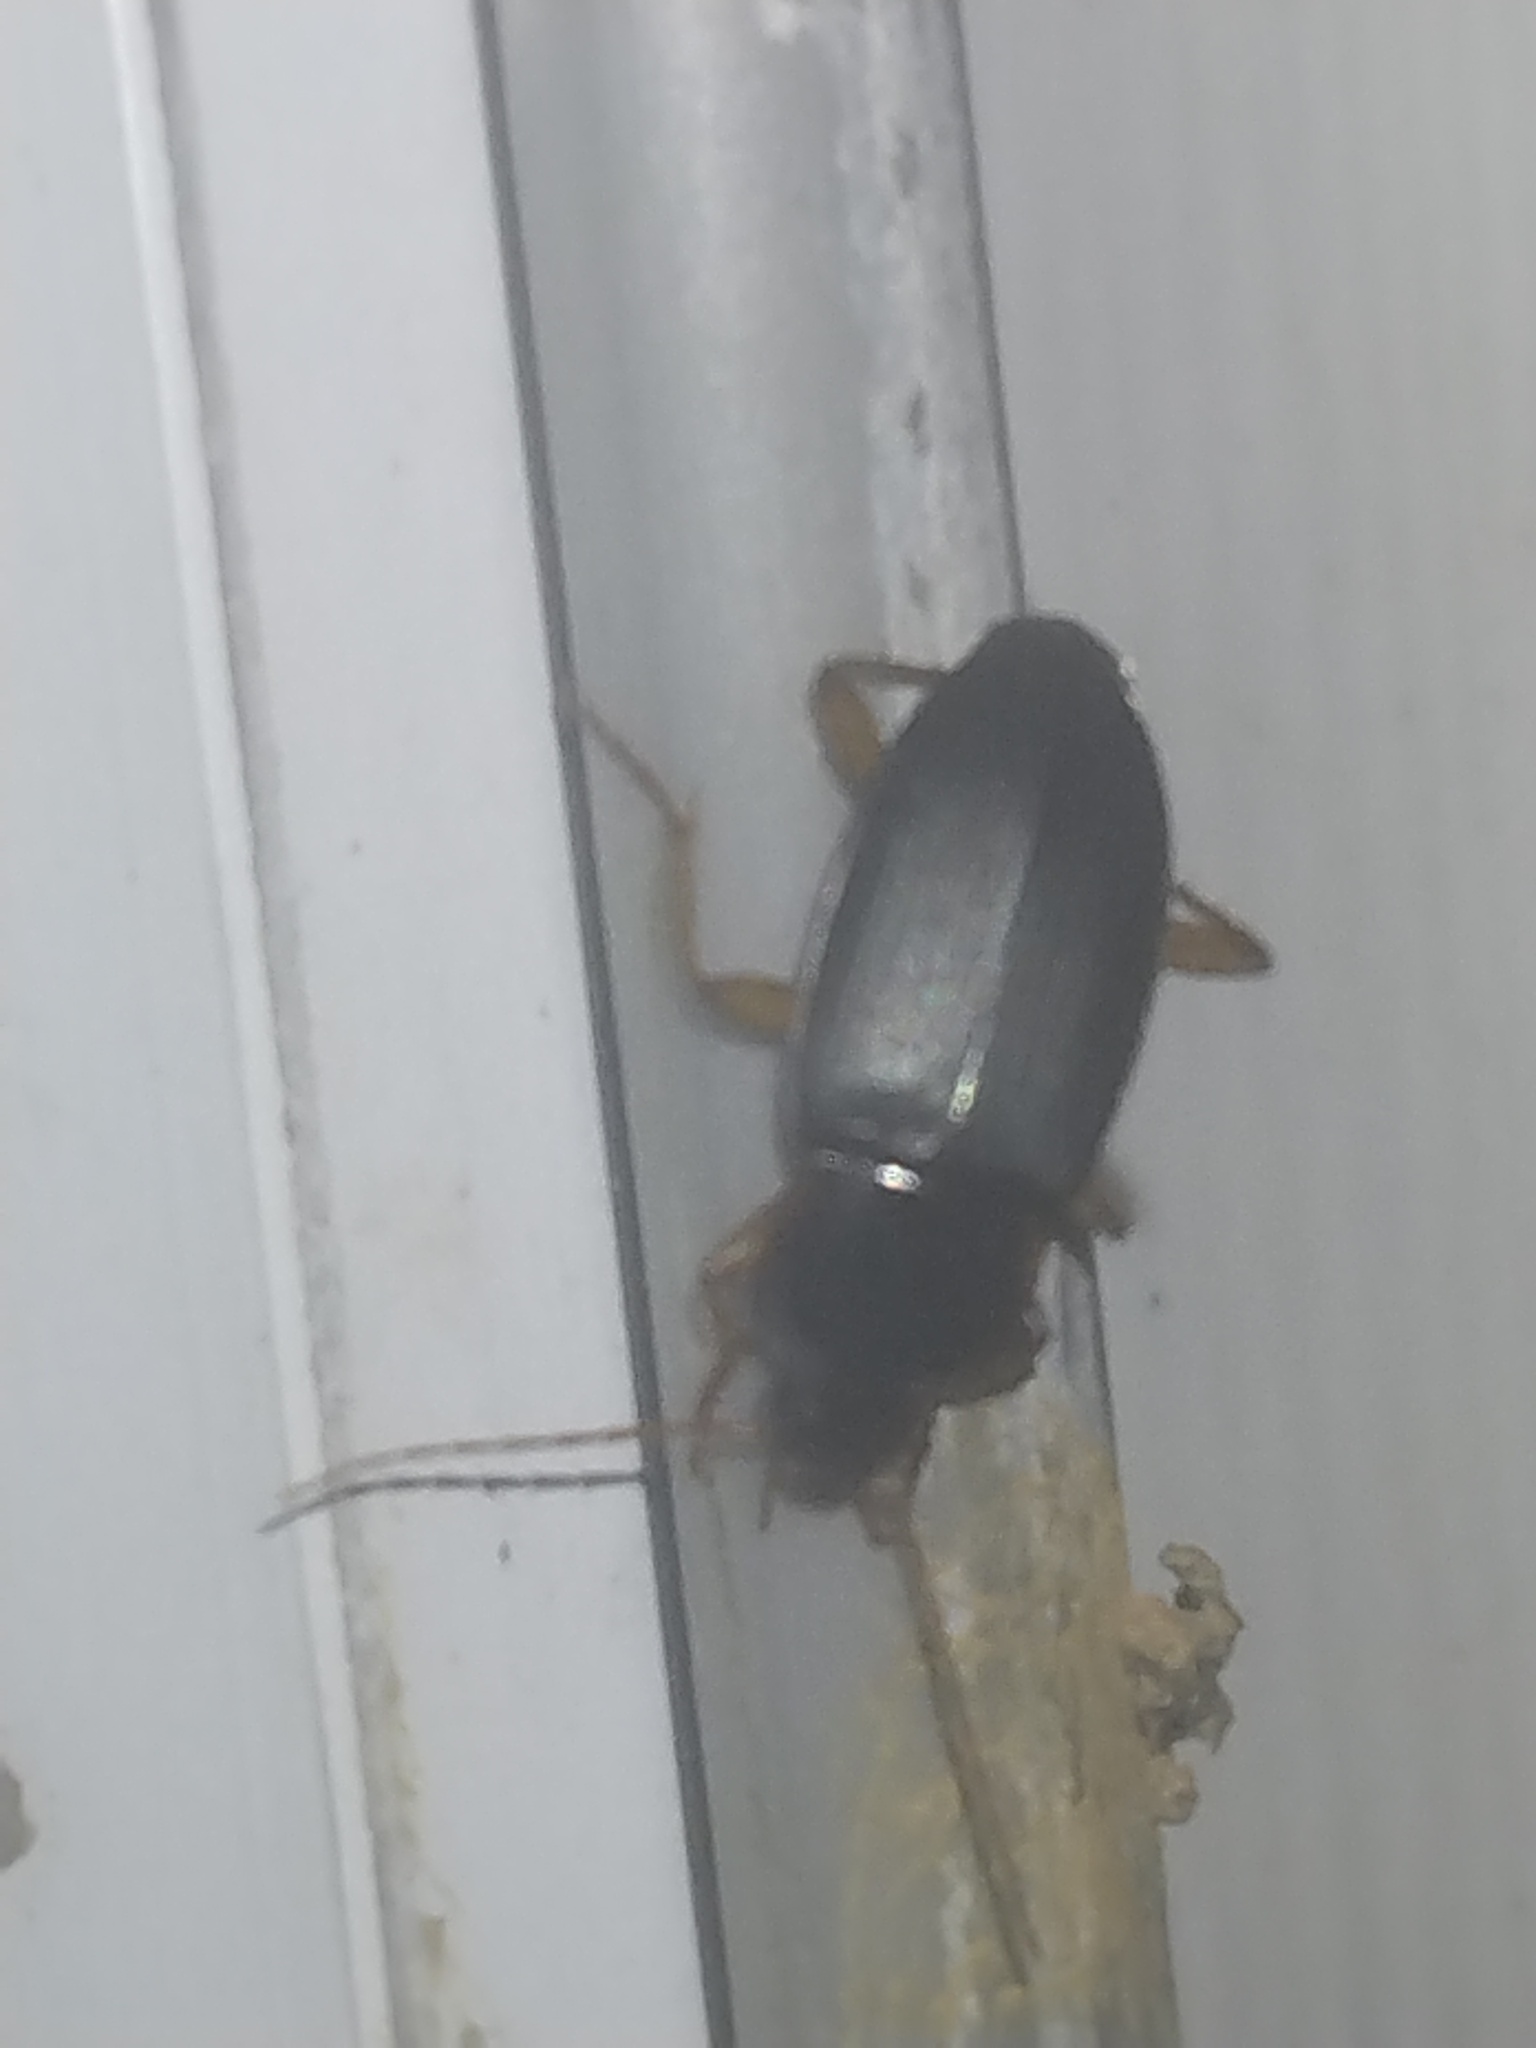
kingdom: Animalia
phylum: Arthropoda
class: Insecta
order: Coleoptera
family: Carabidae
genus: Calathus
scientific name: Calathus opaculus
